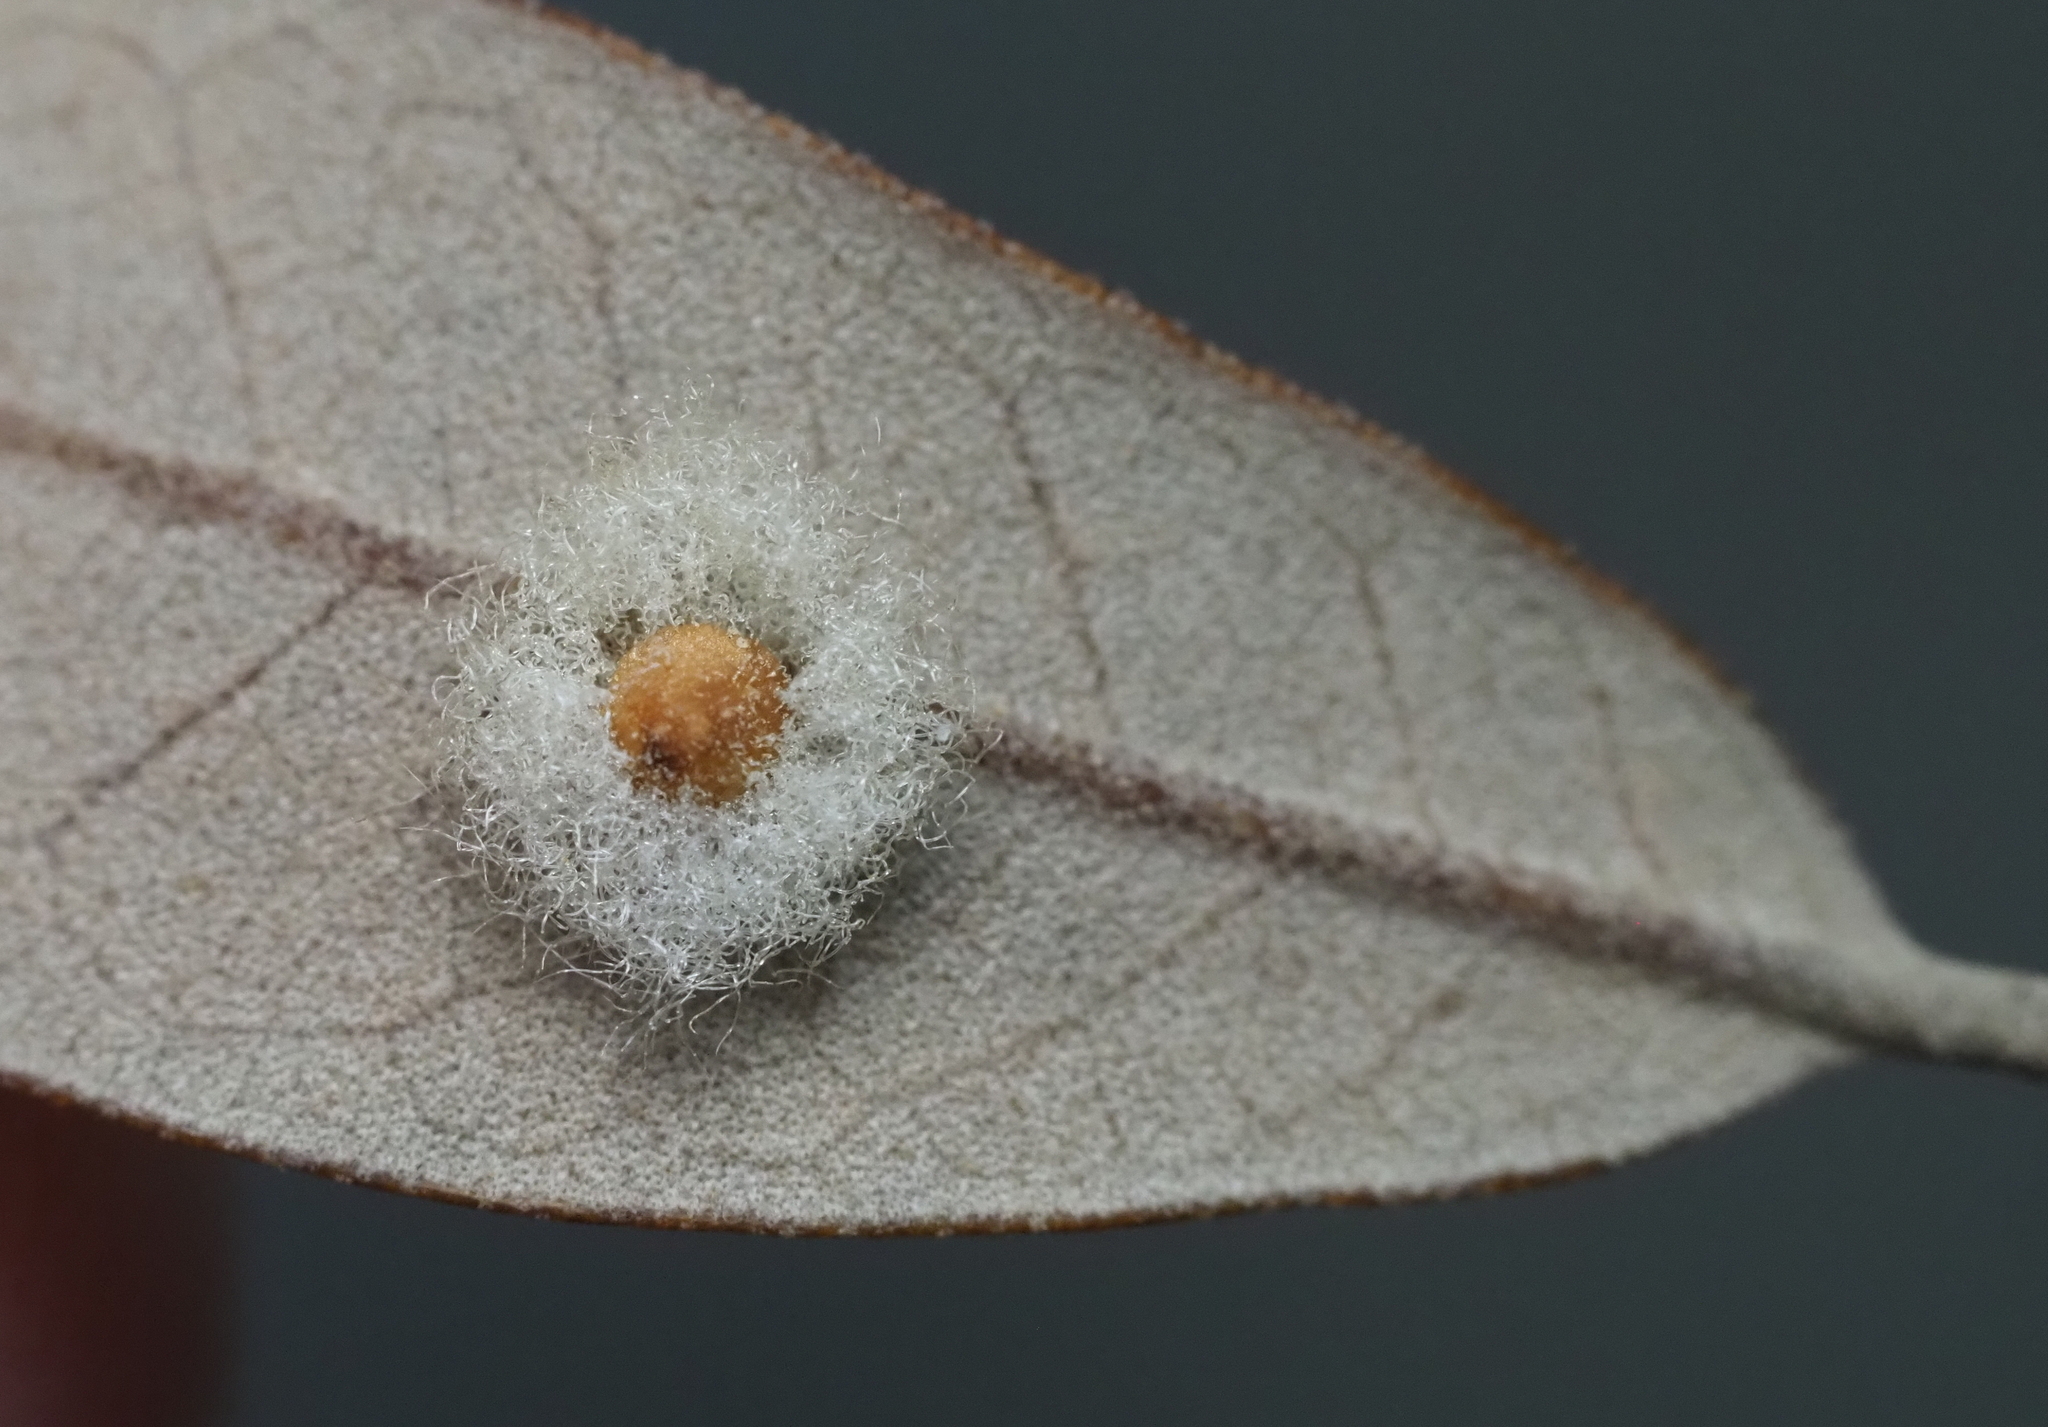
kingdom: Animalia
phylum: Arthropoda
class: Insecta
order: Hymenoptera
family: Cynipidae
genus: Andricus
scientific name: Andricus Druon quercuslanigerum
